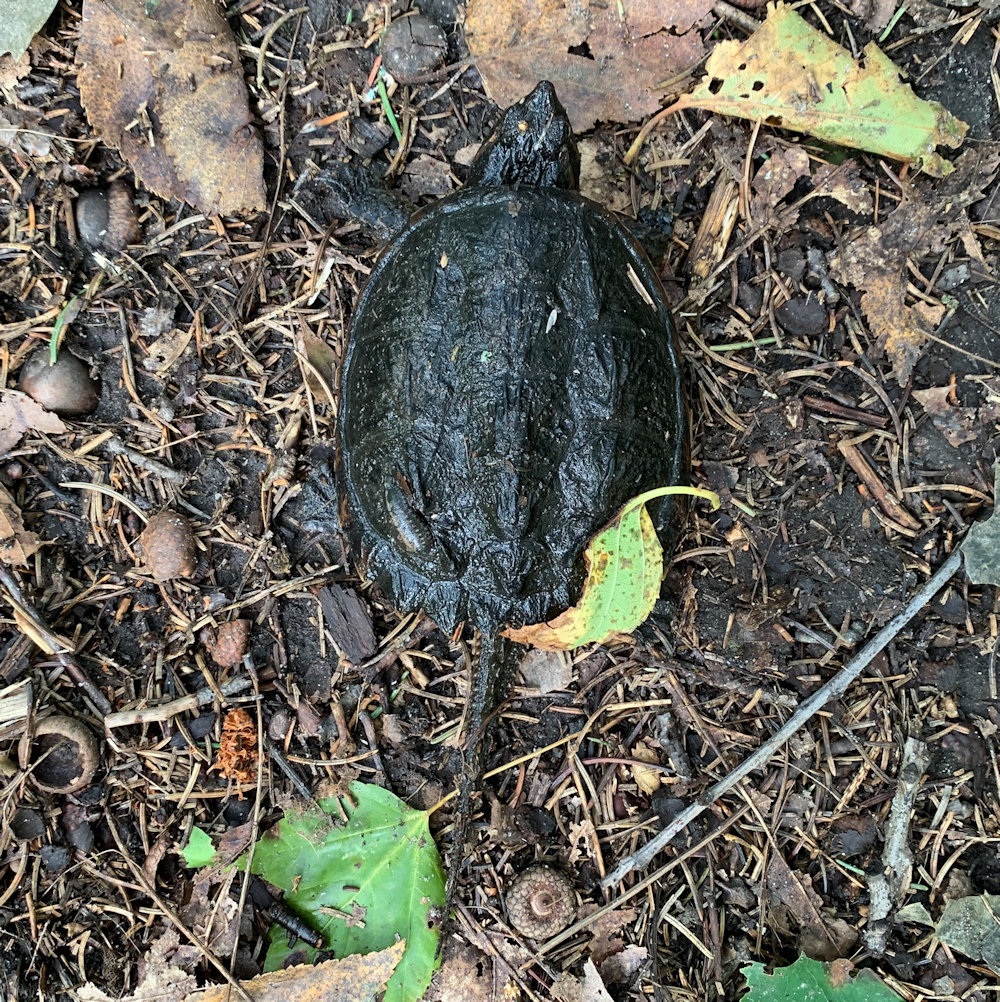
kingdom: Animalia
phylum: Chordata
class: Testudines
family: Chelydridae
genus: Chelydra
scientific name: Chelydra serpentina
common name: Common snapping turtle
